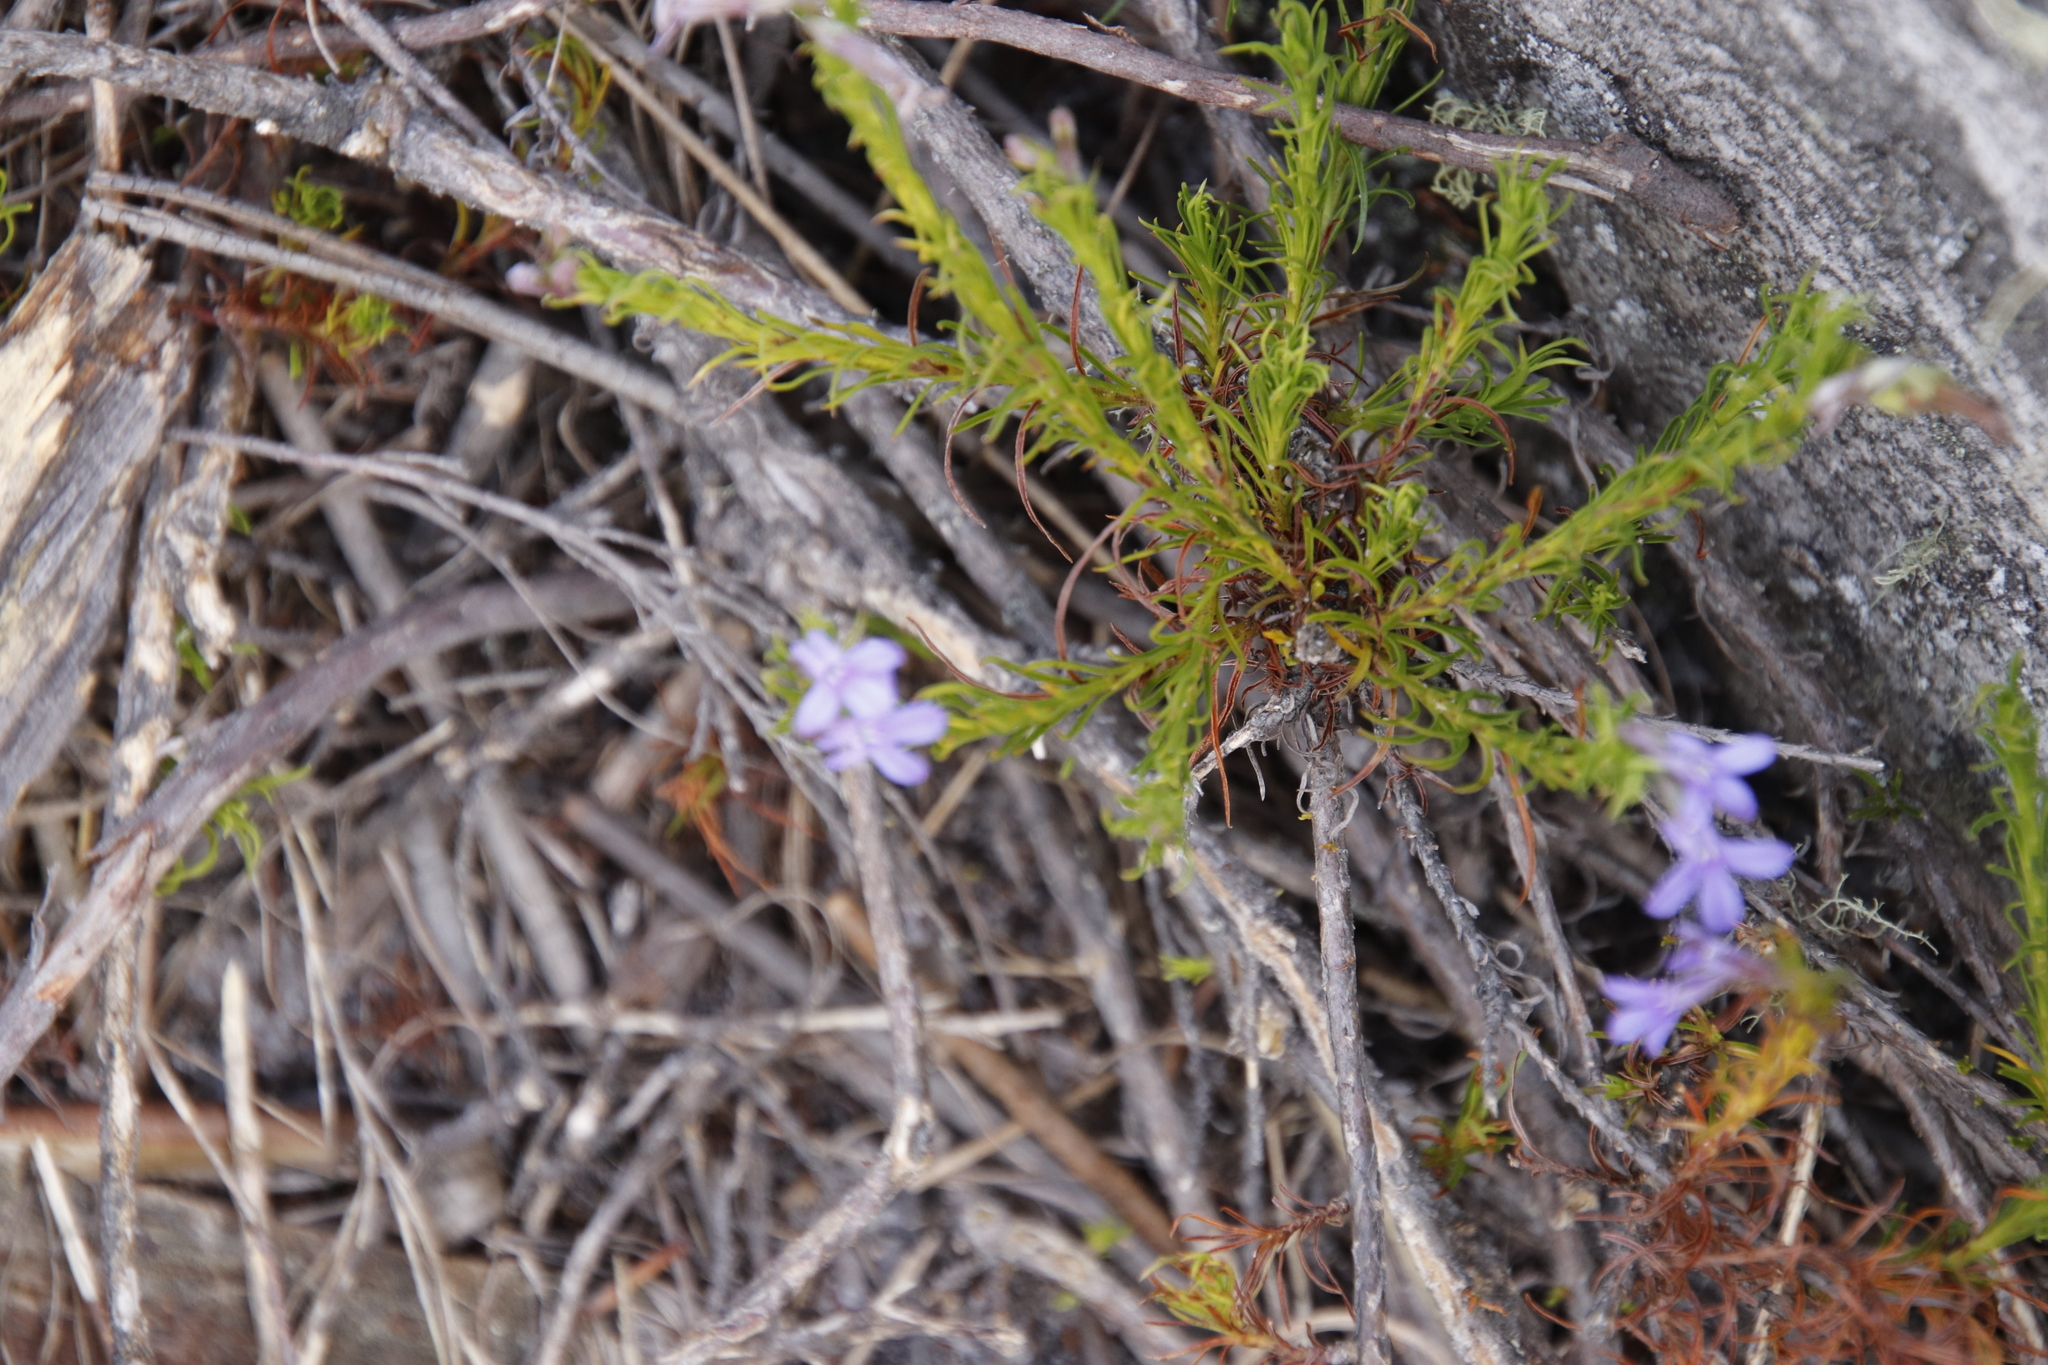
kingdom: Plantae
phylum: Tracheophyta
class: Magnoliopsida
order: Asterales
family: Campanulaceae
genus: Lobelia
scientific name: Lobelia pinifolia
